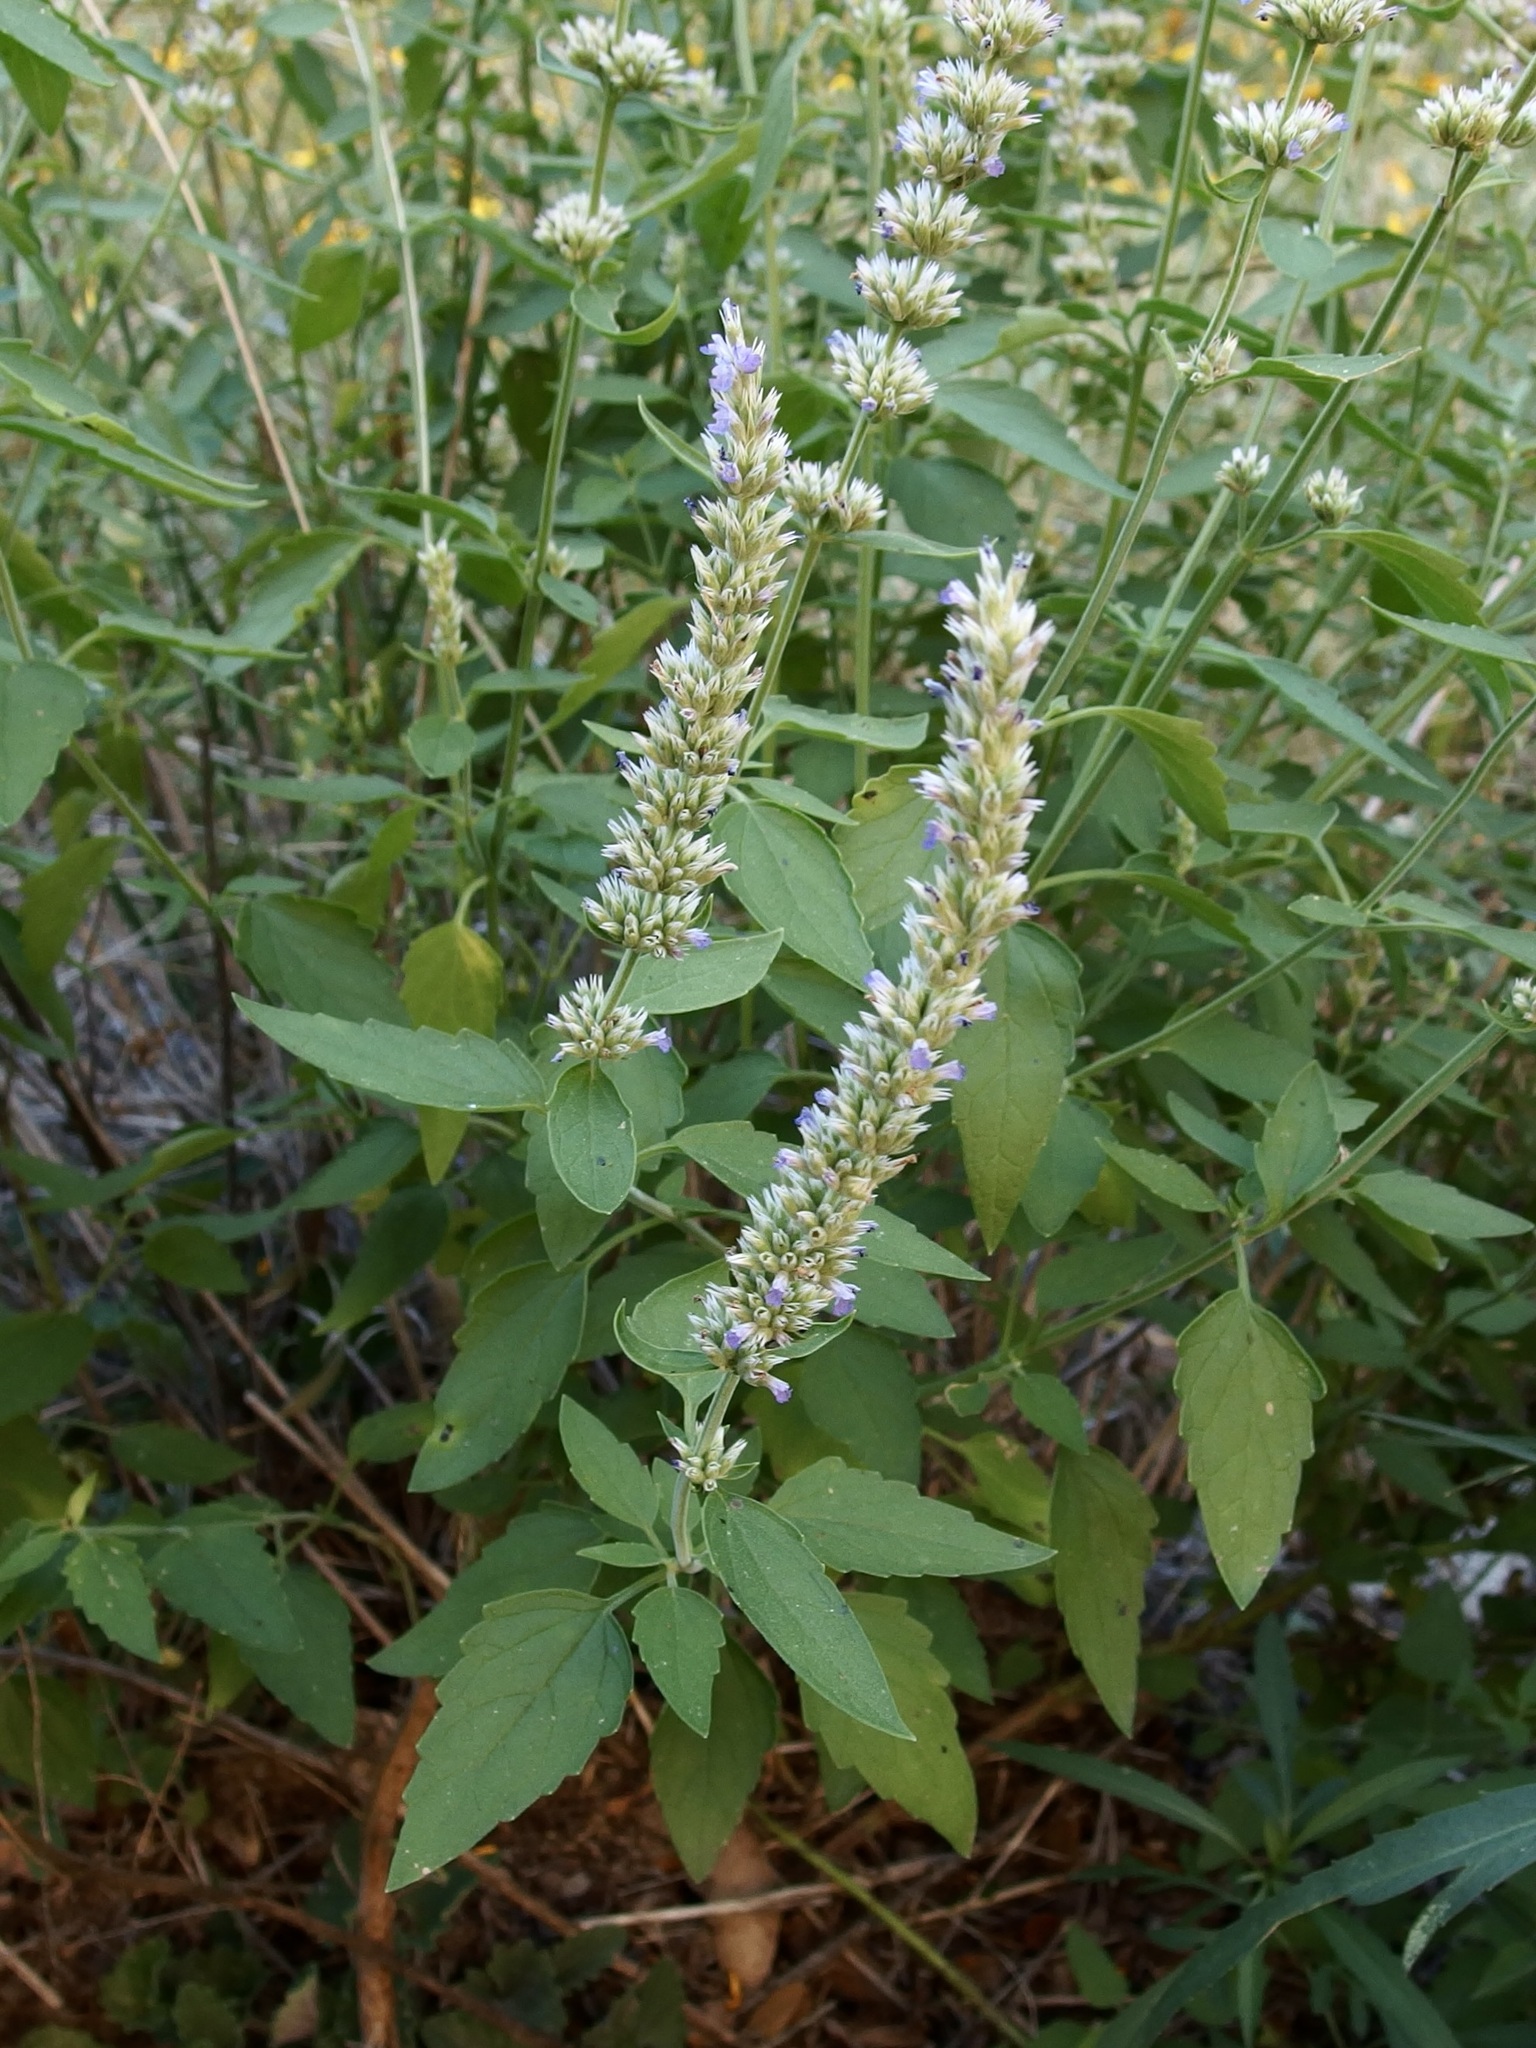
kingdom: Plantae
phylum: Tracheophyta
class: Magnoliopsida
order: Lamiales
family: Lamiaceae
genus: Agastache
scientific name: Agastache wrightii
